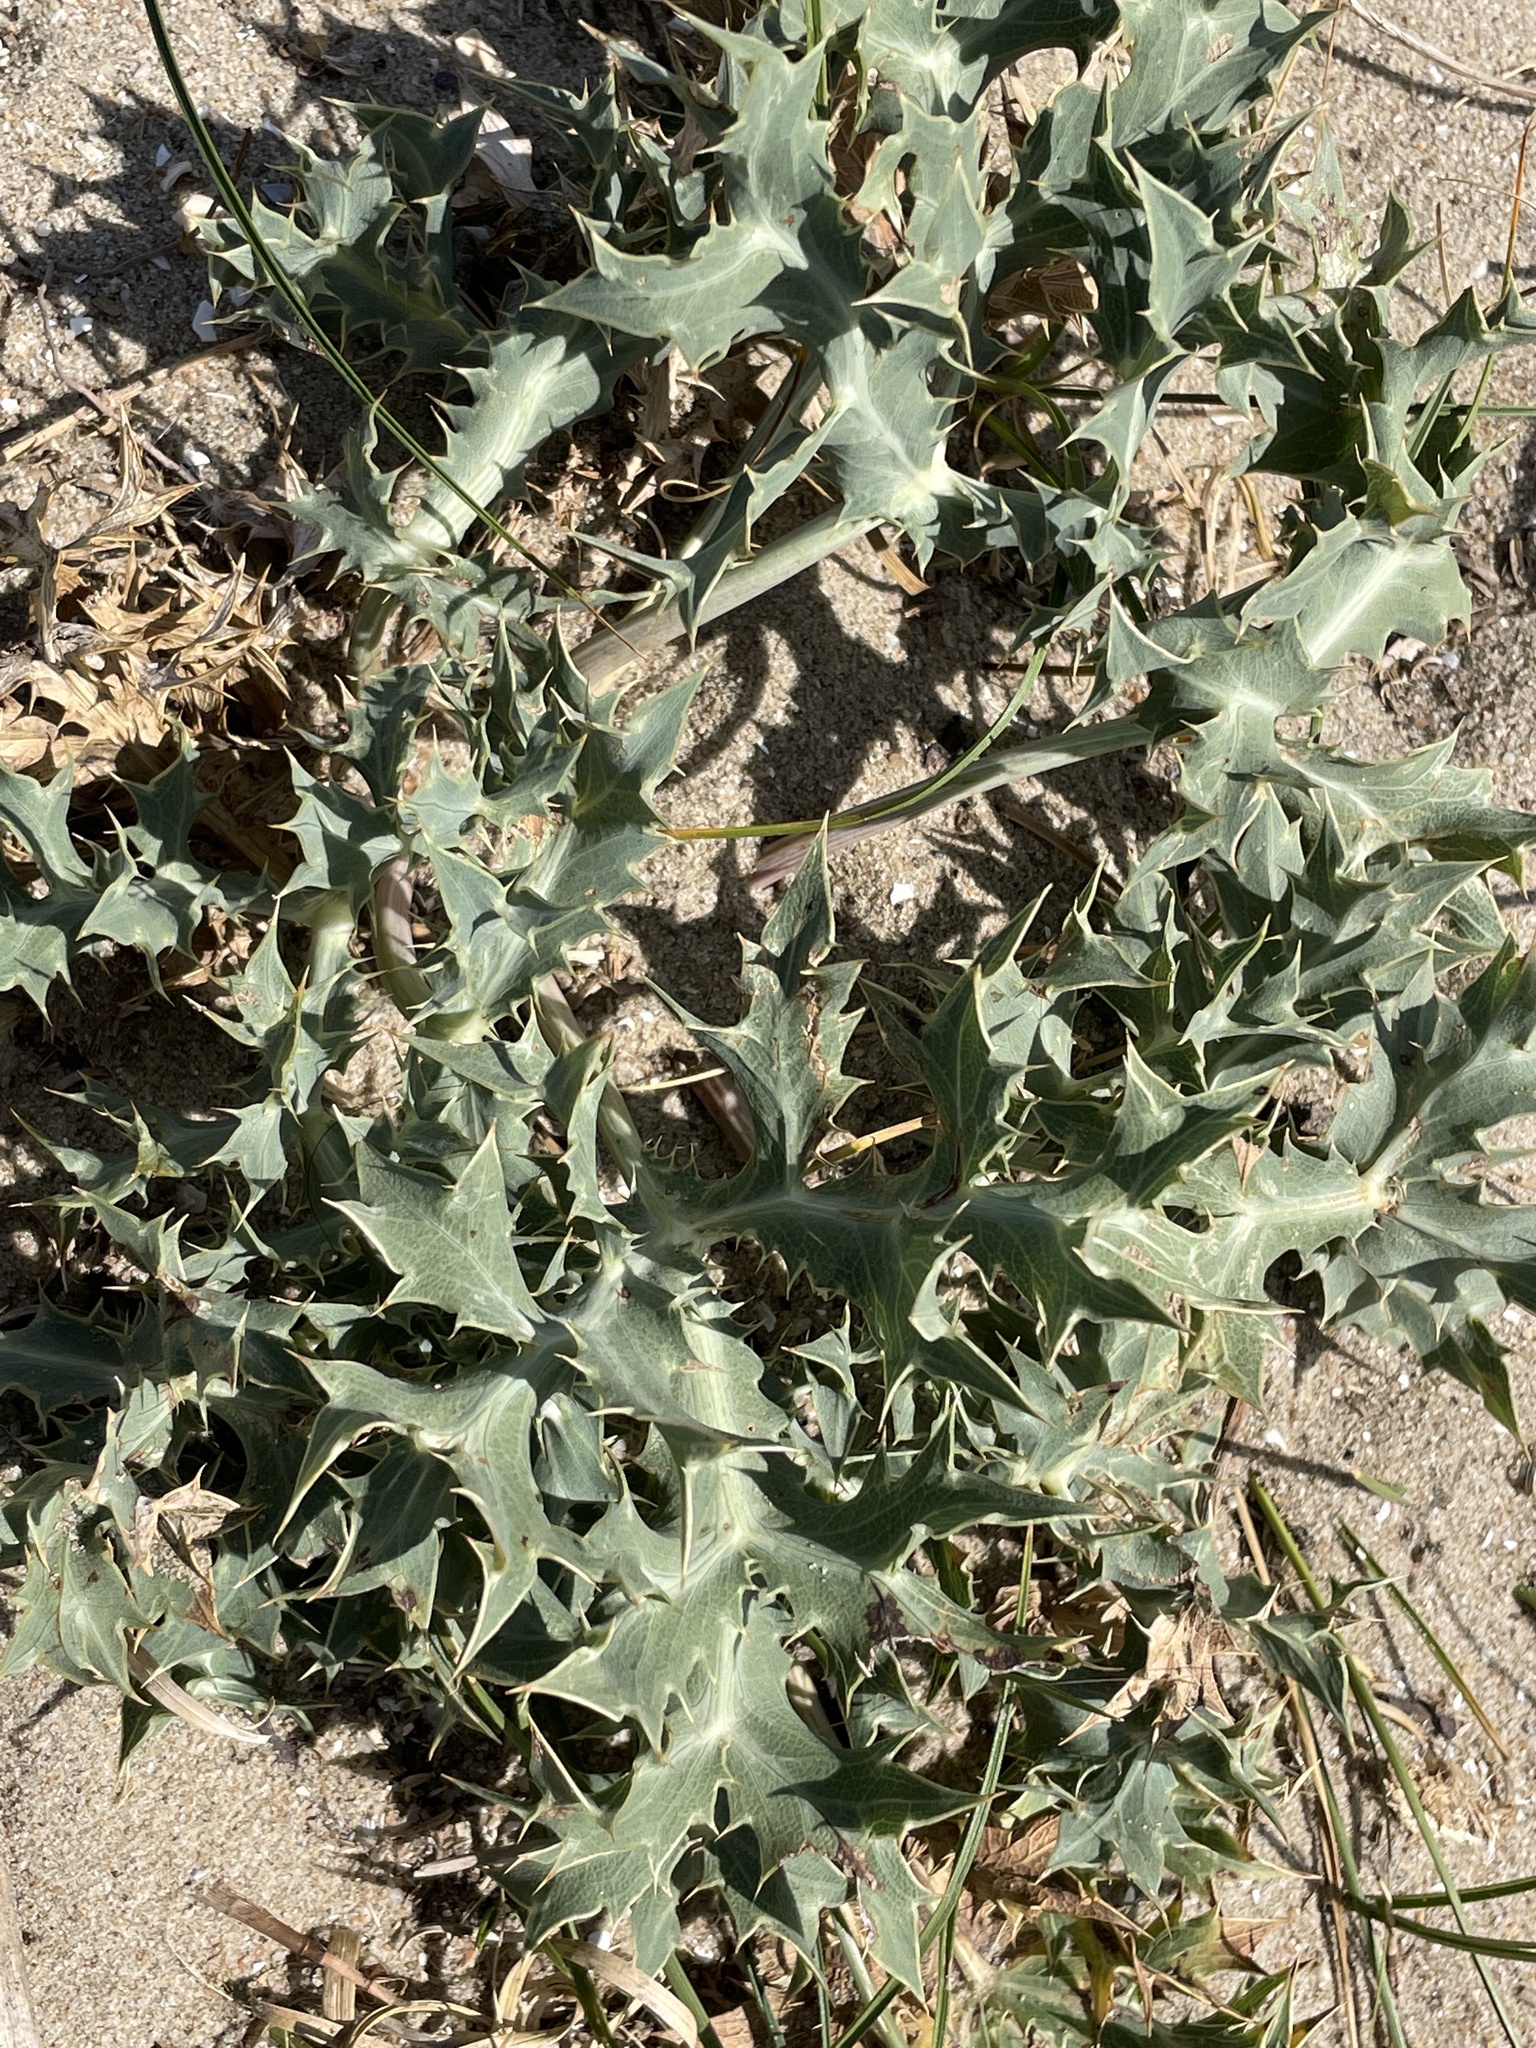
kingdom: Plantae
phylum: Tracheophyta
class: Magnoliopsida
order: Apiales
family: Apiaceae
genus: Eryngium
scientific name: Eryngium maritimum
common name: Sea-holly
